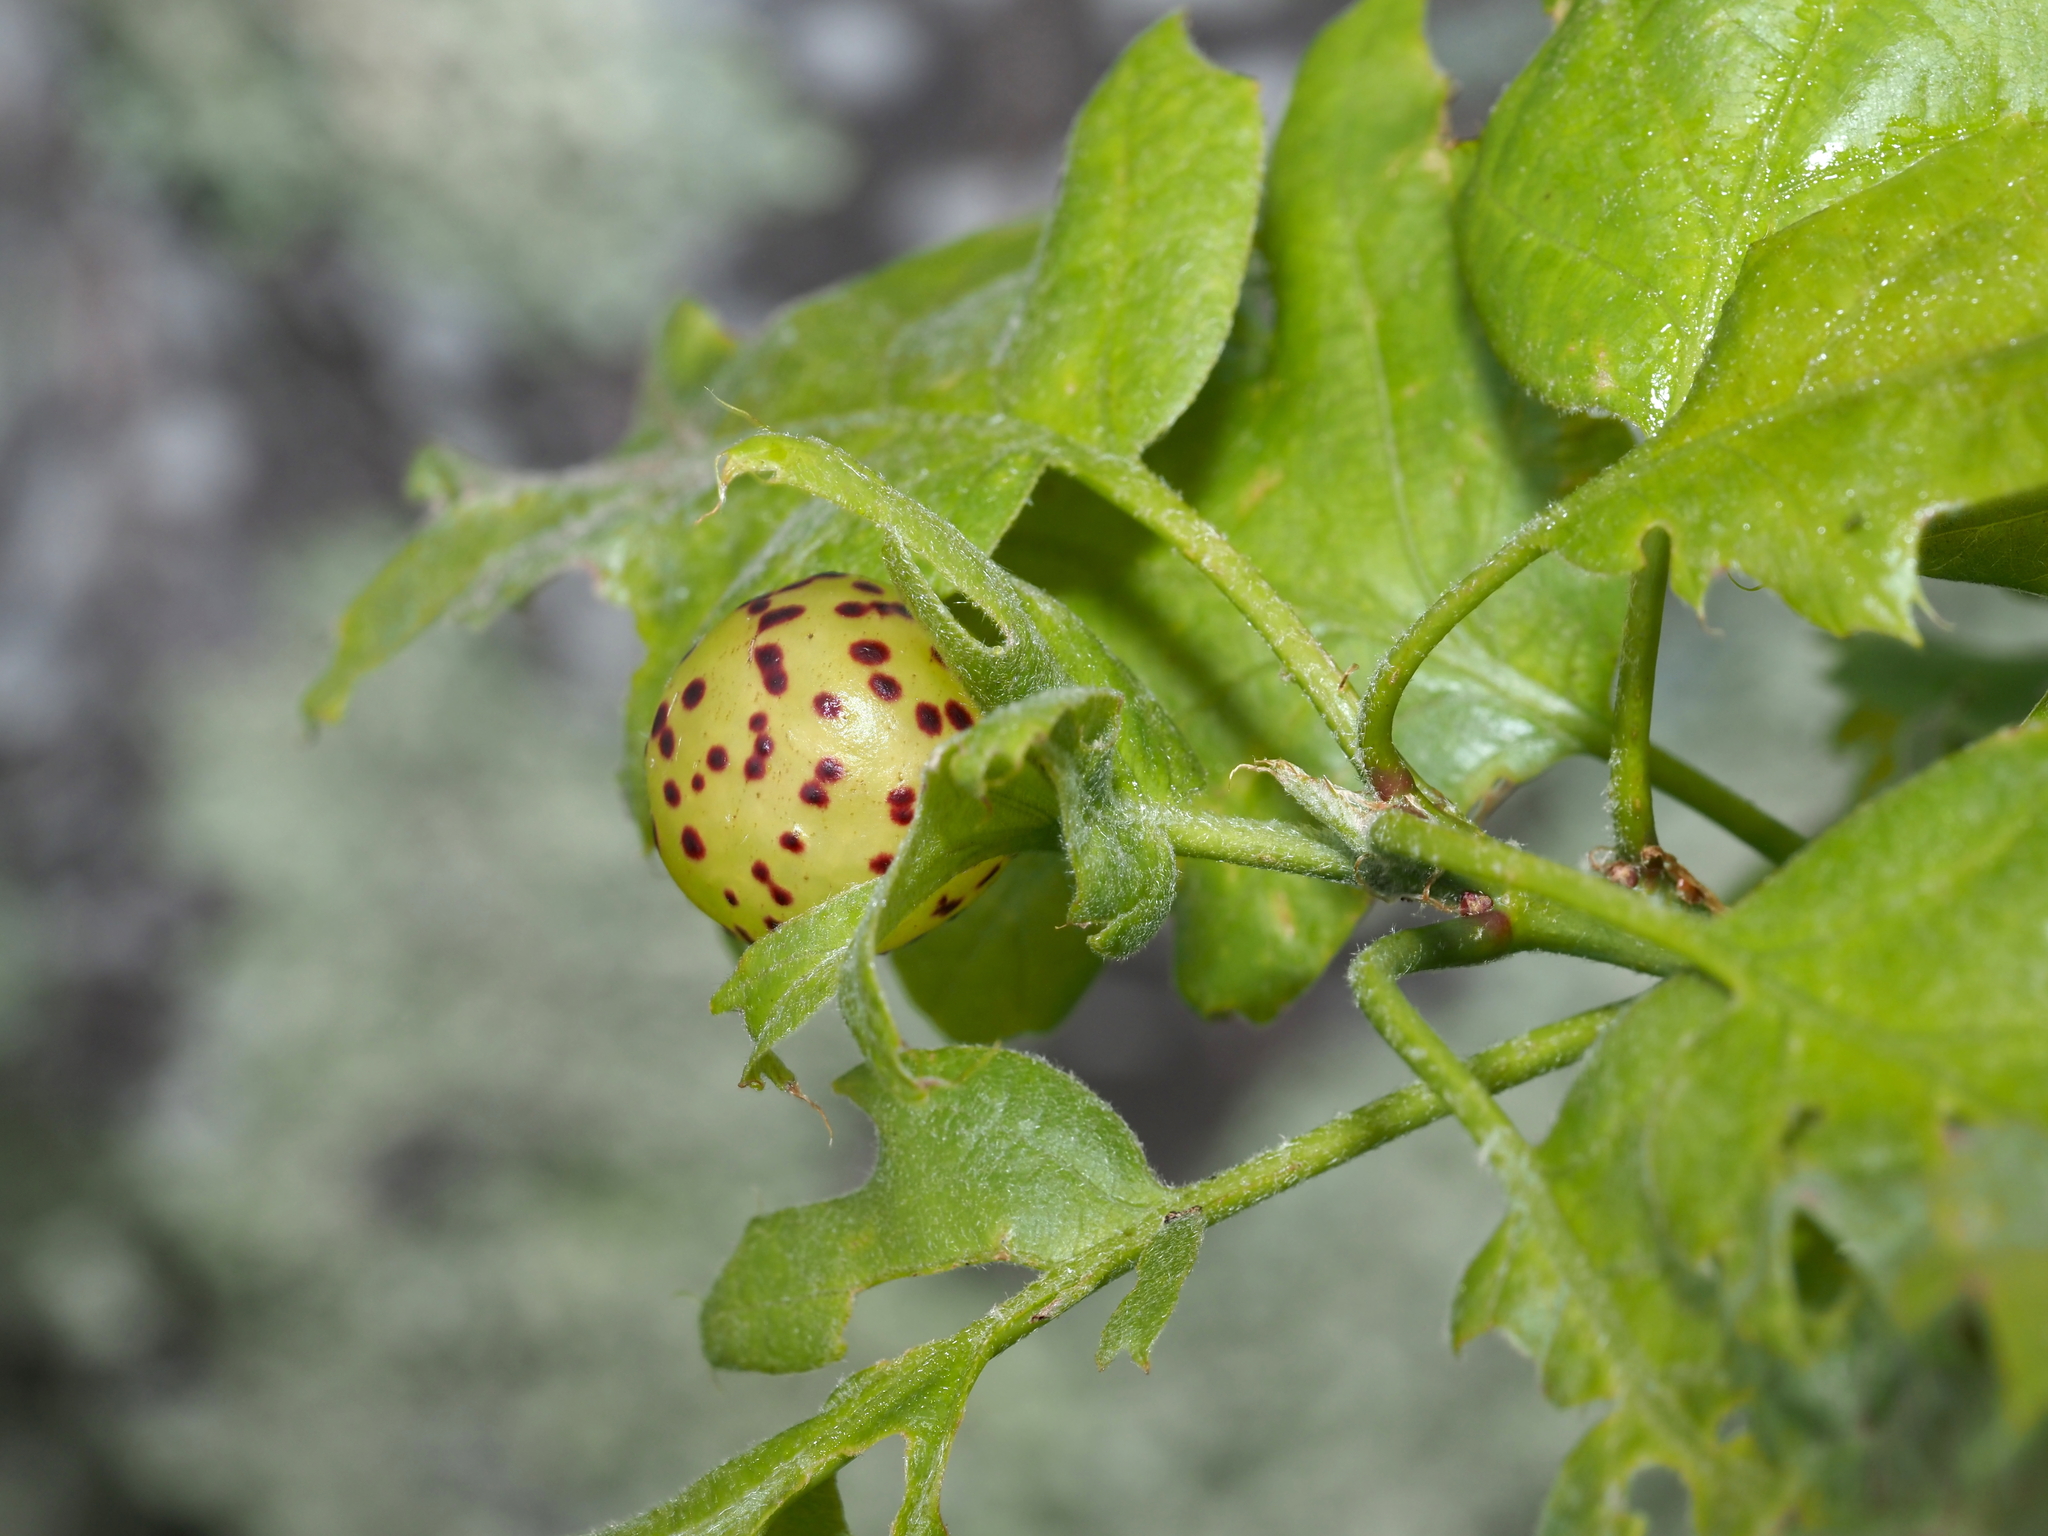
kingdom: Animalia
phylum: Arthropoda
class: Insecta
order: Hymenoptera
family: Cynipidae
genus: Amphibolips
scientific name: Amphibolips
